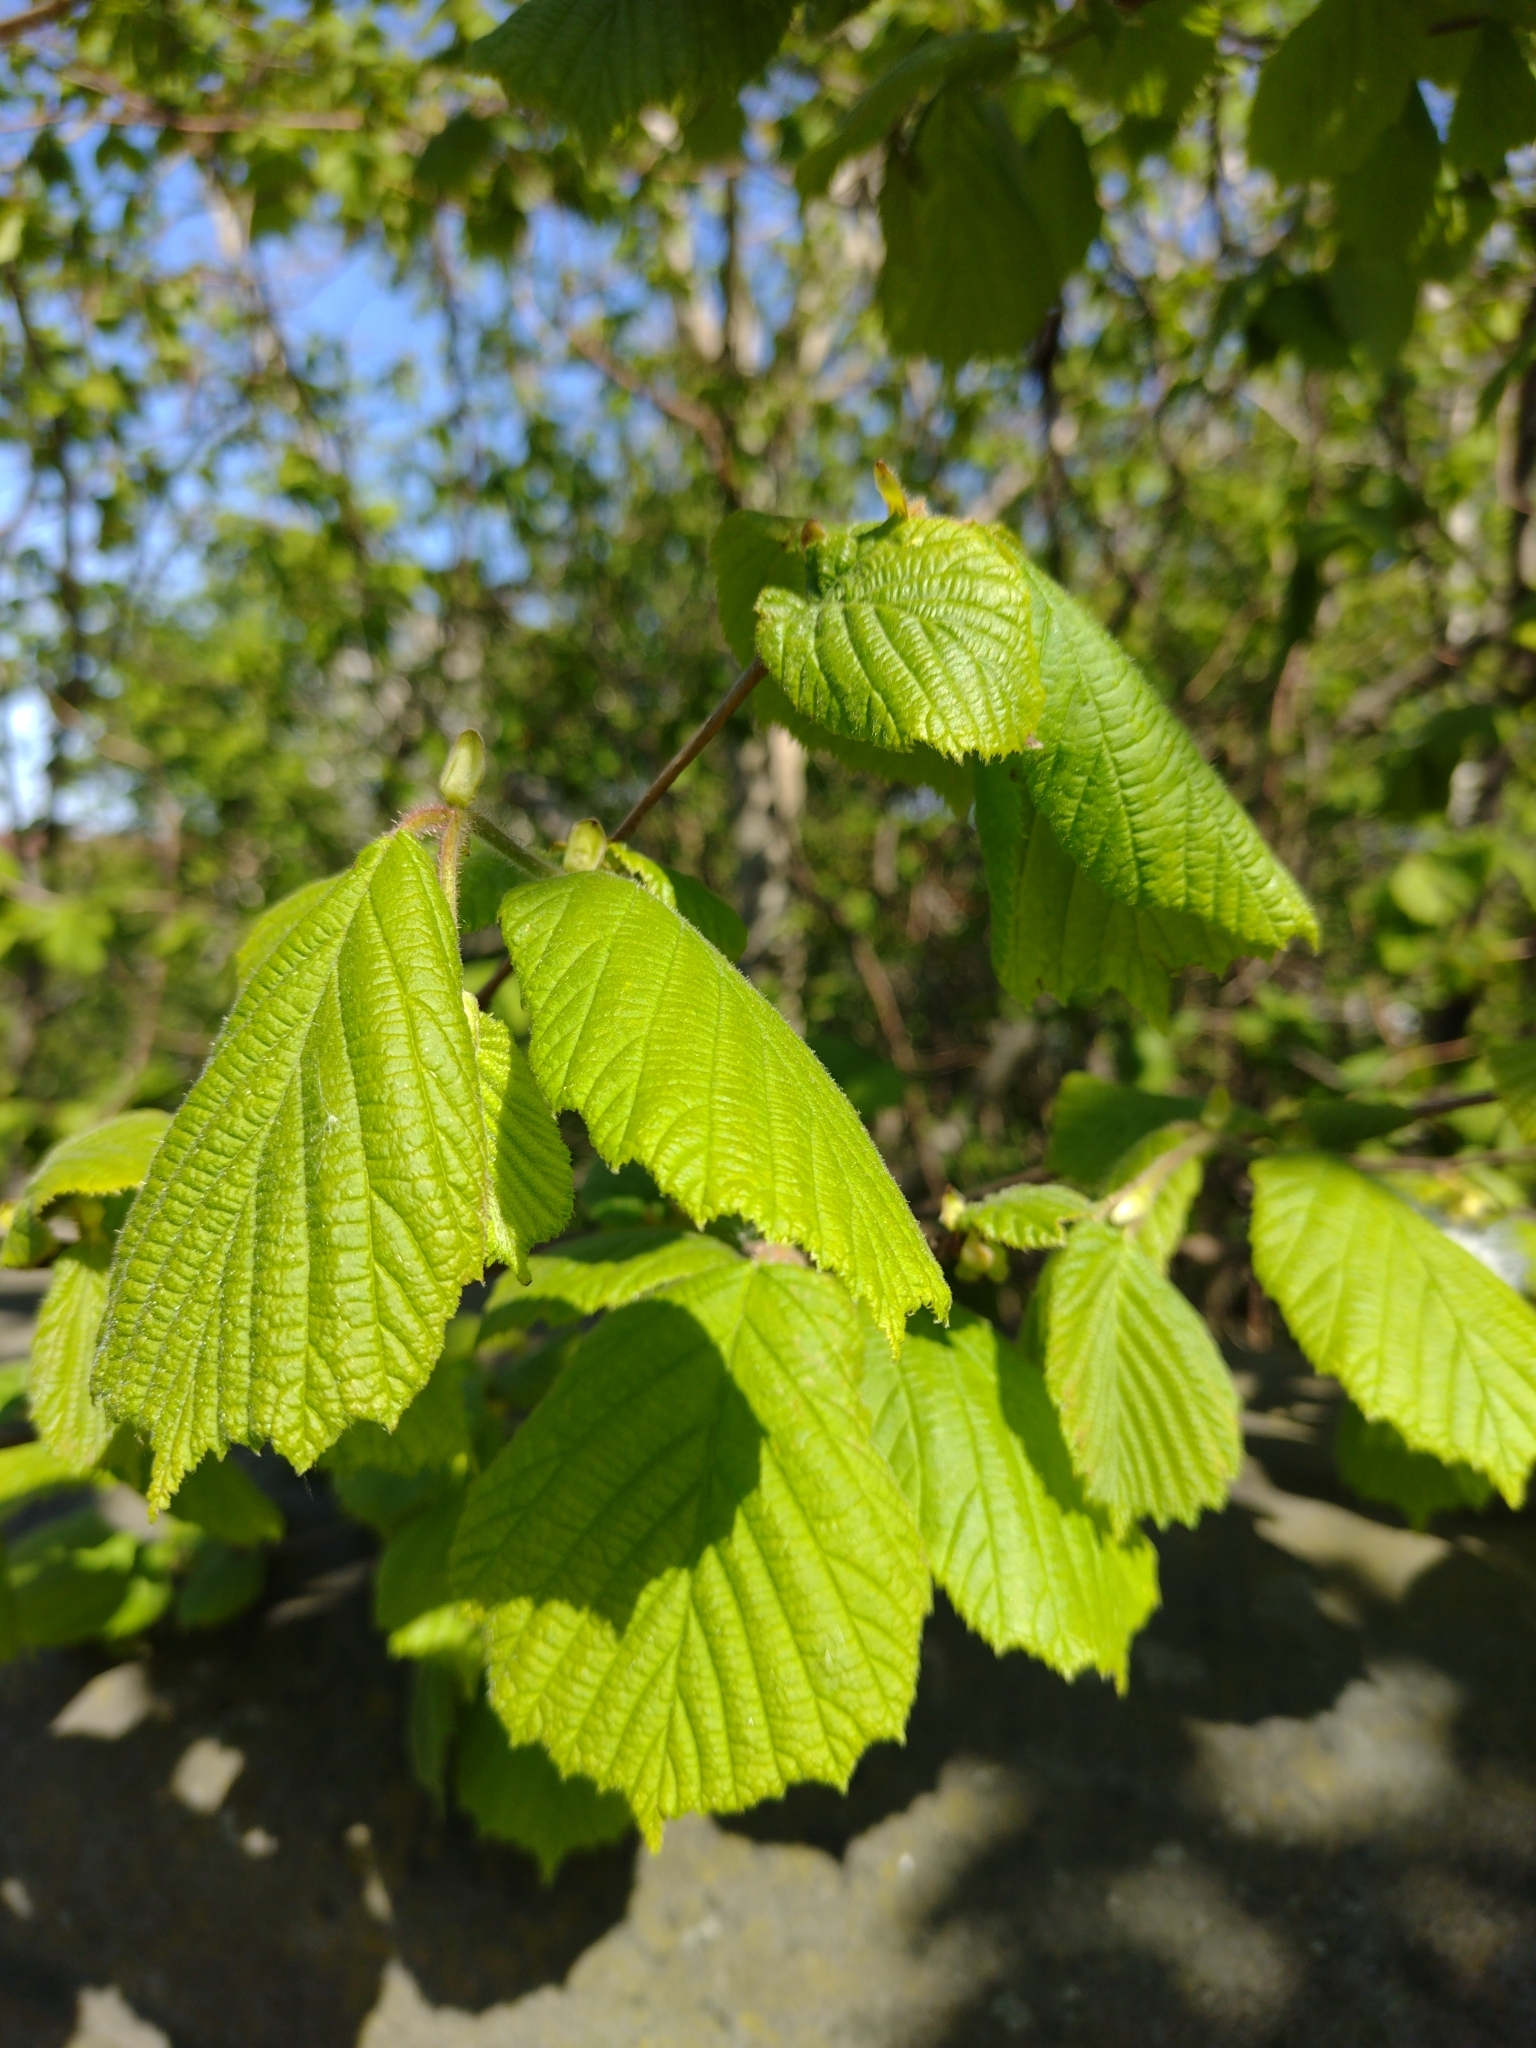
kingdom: Plantae
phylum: Tracheophyta
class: Magnoliopsida
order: Fagales
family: Betulaceae
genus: Corylus
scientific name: Corylus avellana
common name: European hazel
